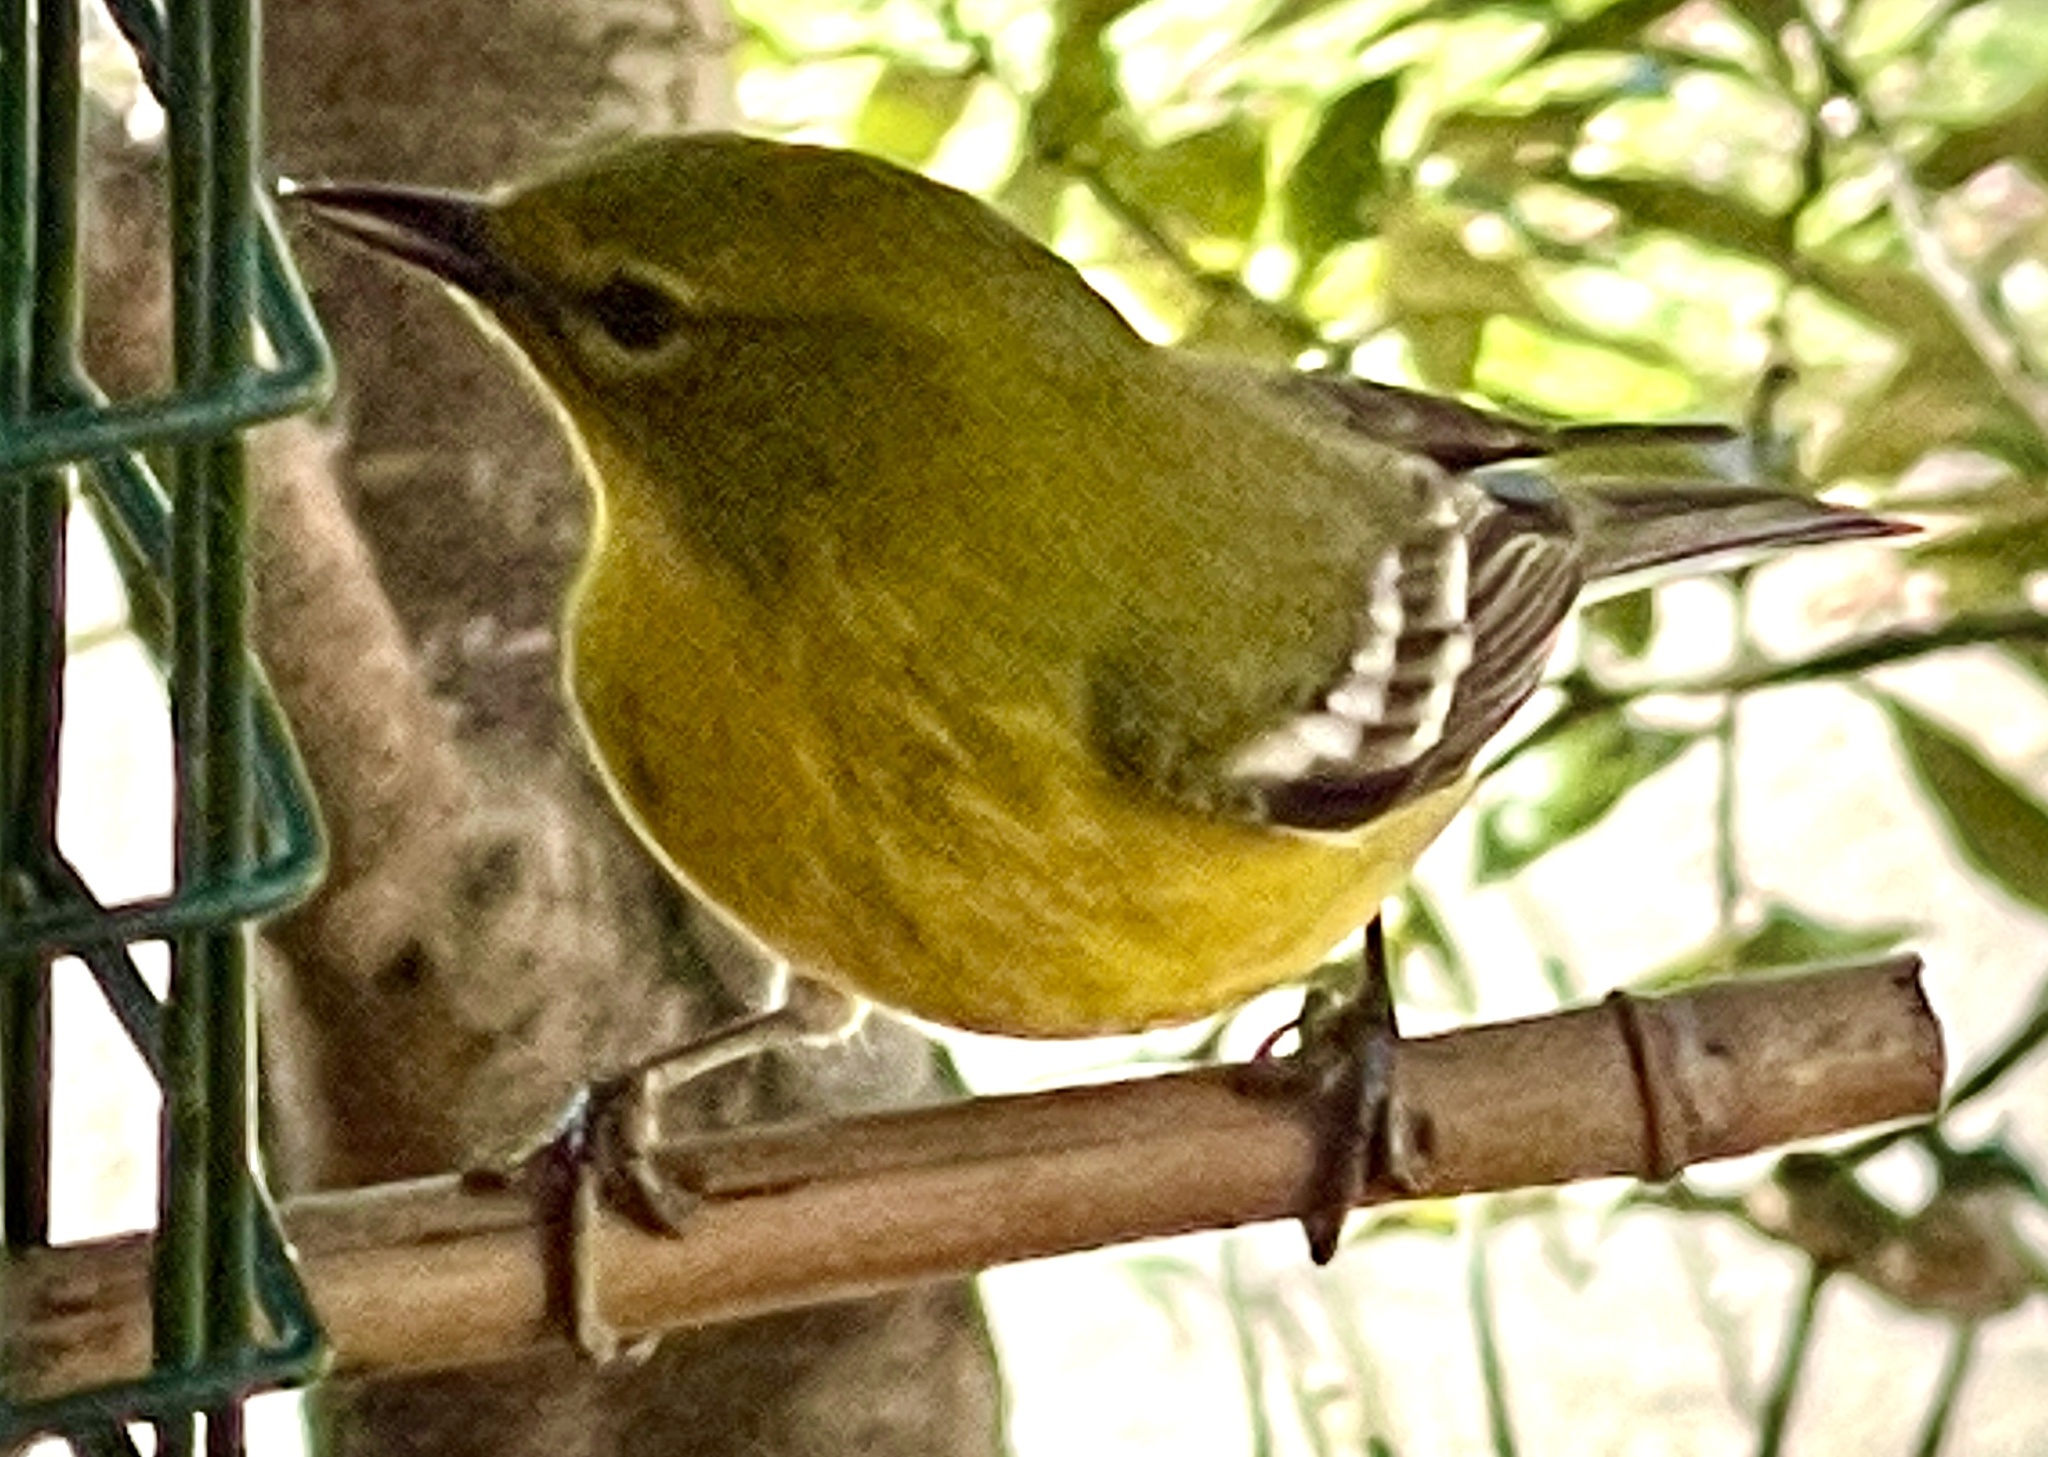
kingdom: Animalia
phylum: Chordata
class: Aves
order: Passeriformes
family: Parulidae
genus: Setophaga
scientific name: Setophaga pinus
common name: Pine warbler
